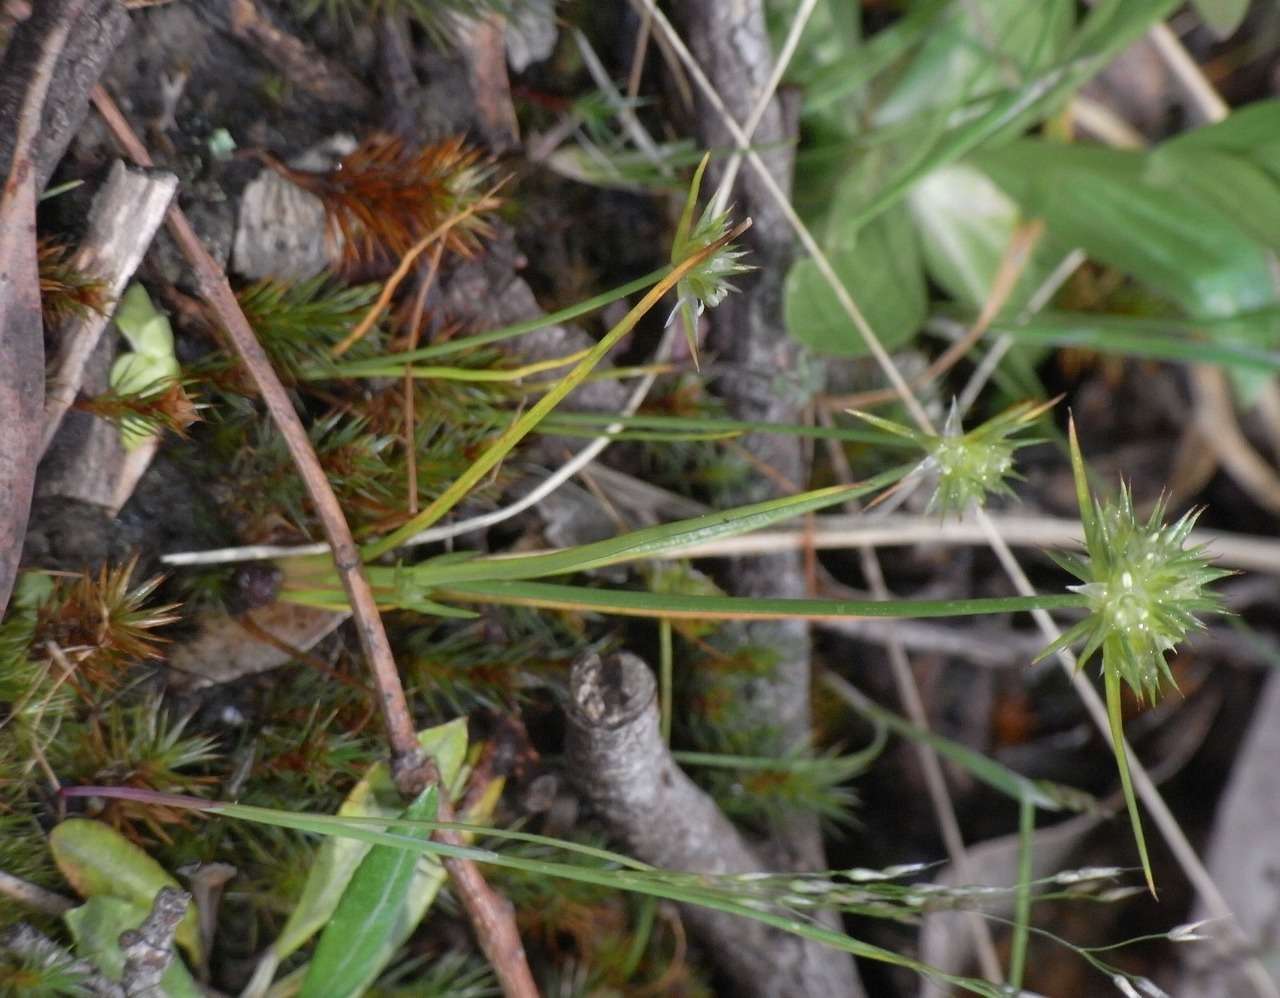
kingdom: Plantae
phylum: Tracheophyta
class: Liliopsida
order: Poales
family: Juncaceae
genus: Juncus
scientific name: Juncus capitatus
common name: Dwarf rush
